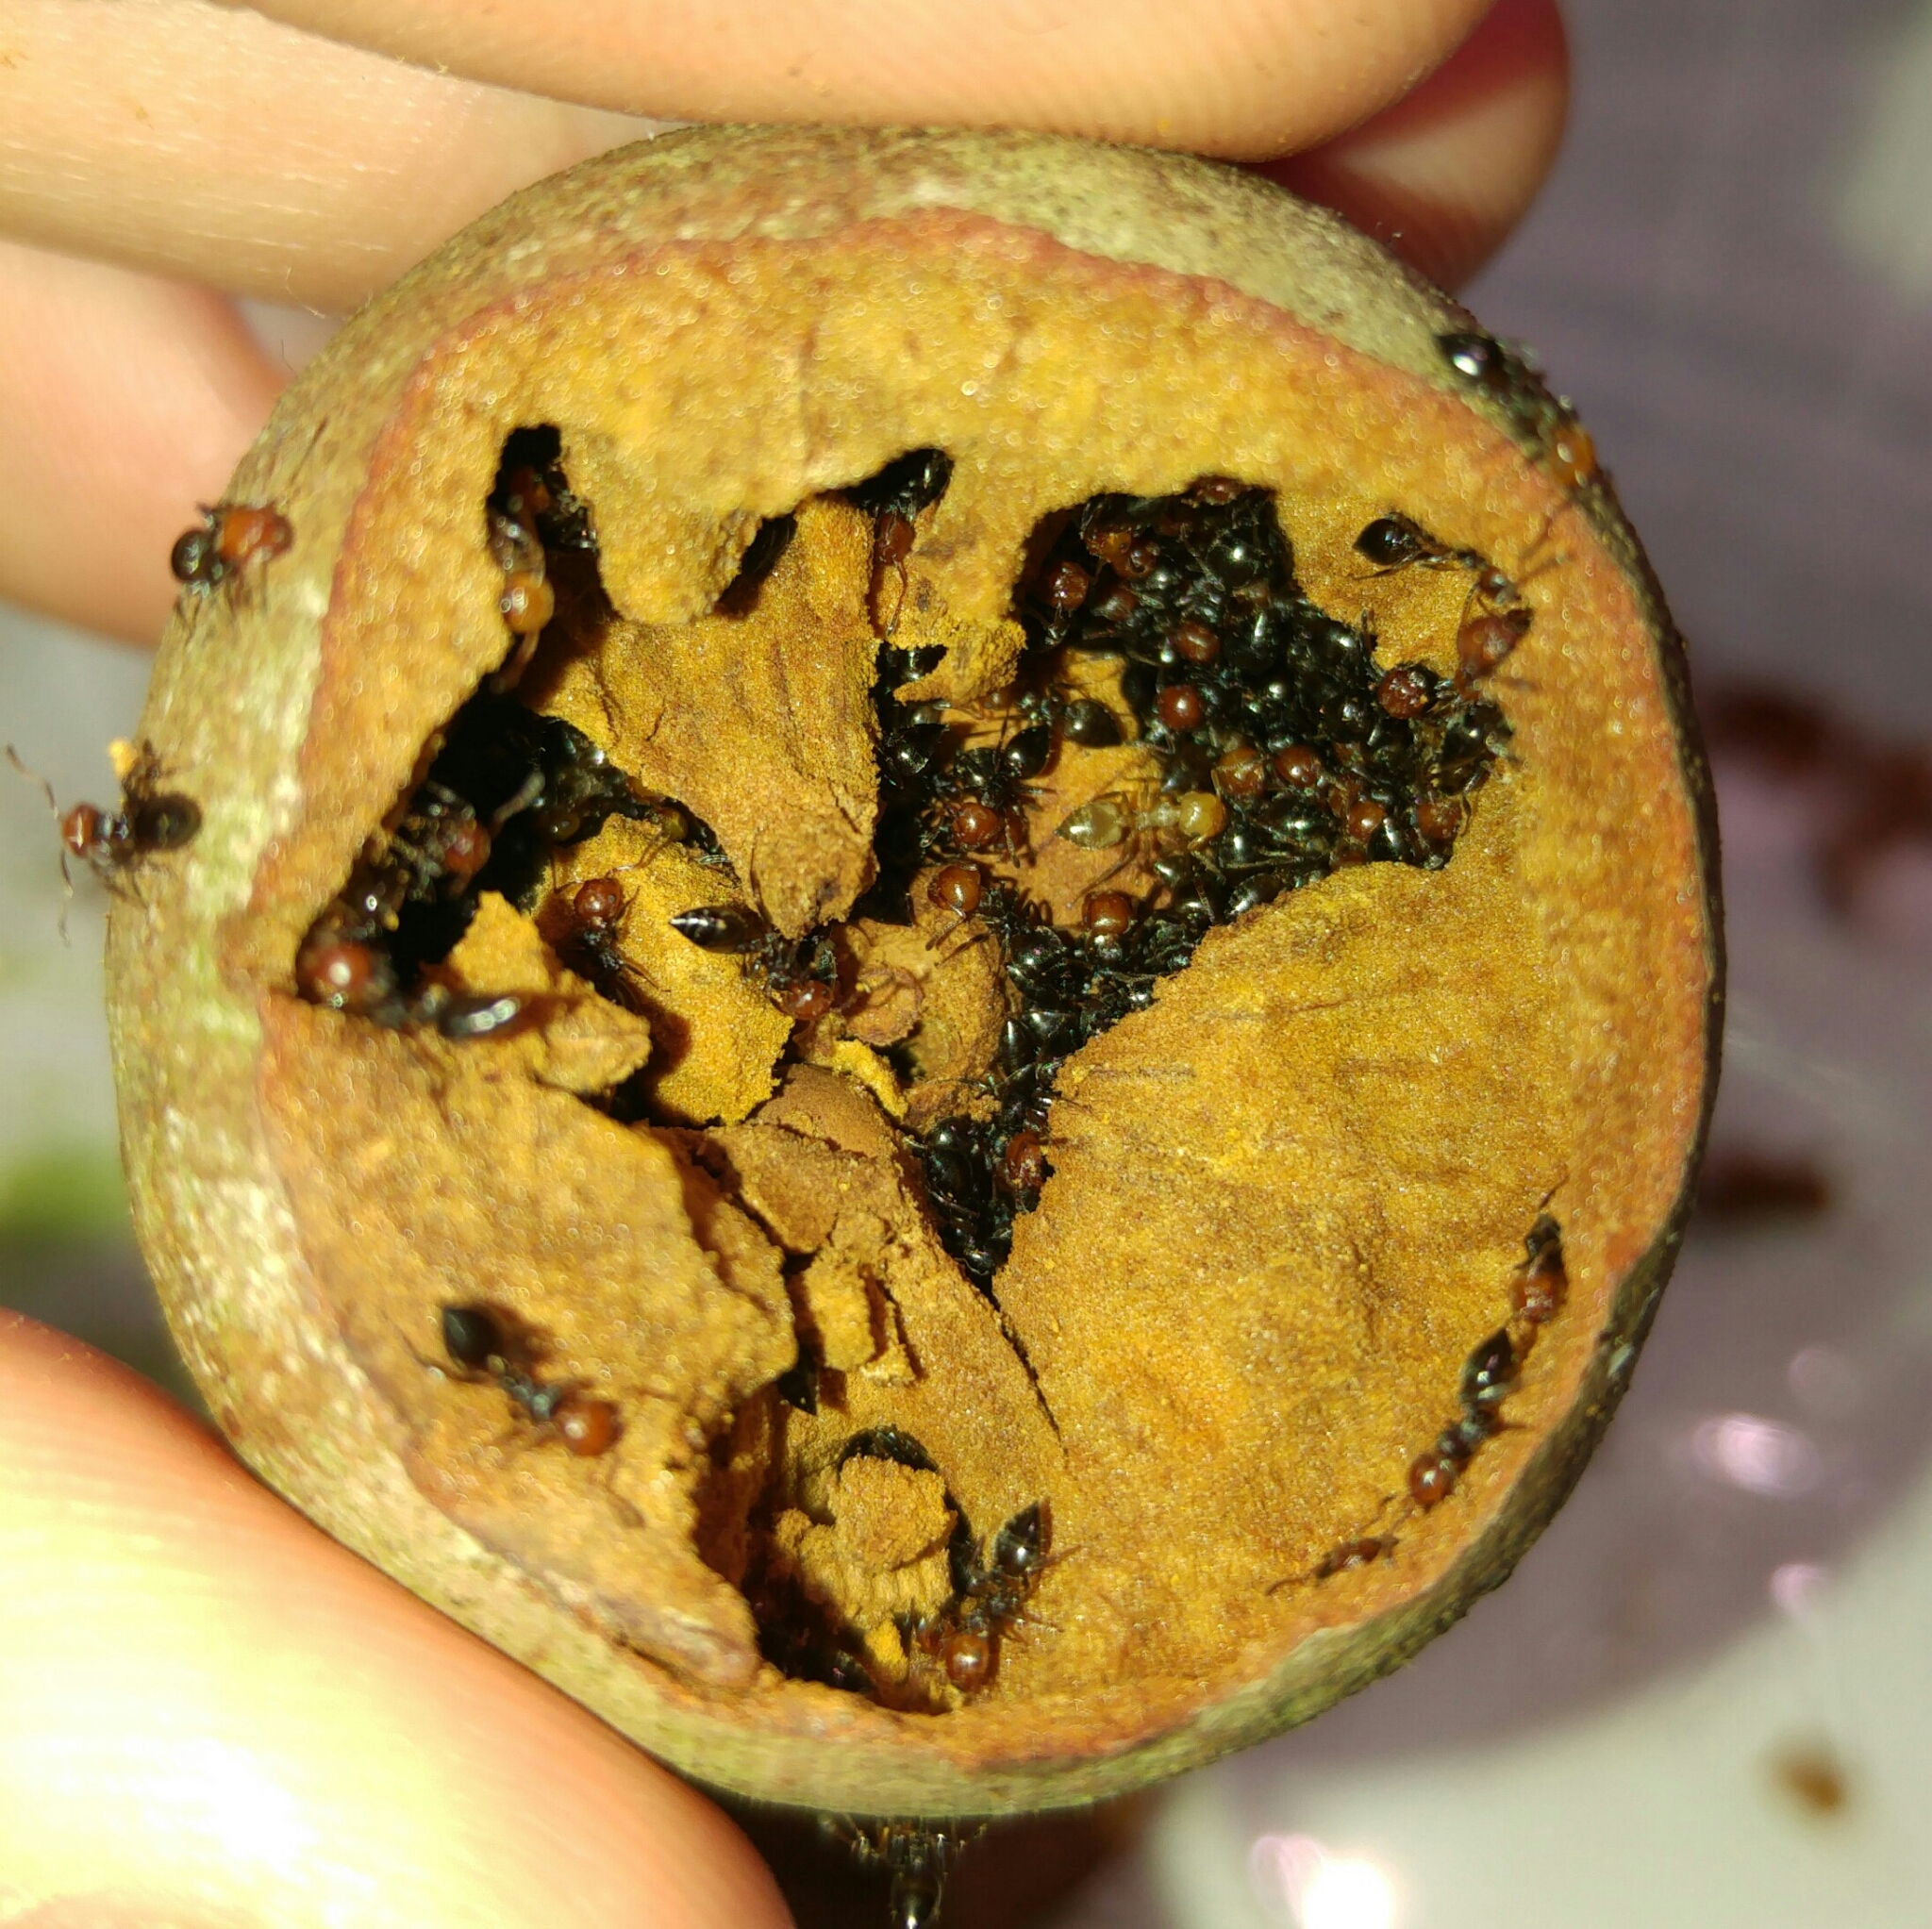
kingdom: Animalia
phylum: Arthropoda
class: Insecta
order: Hymenoptera
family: Formicidae
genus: Crematogaster
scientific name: Crematogaster scutellaris
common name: Fourmi du liège
